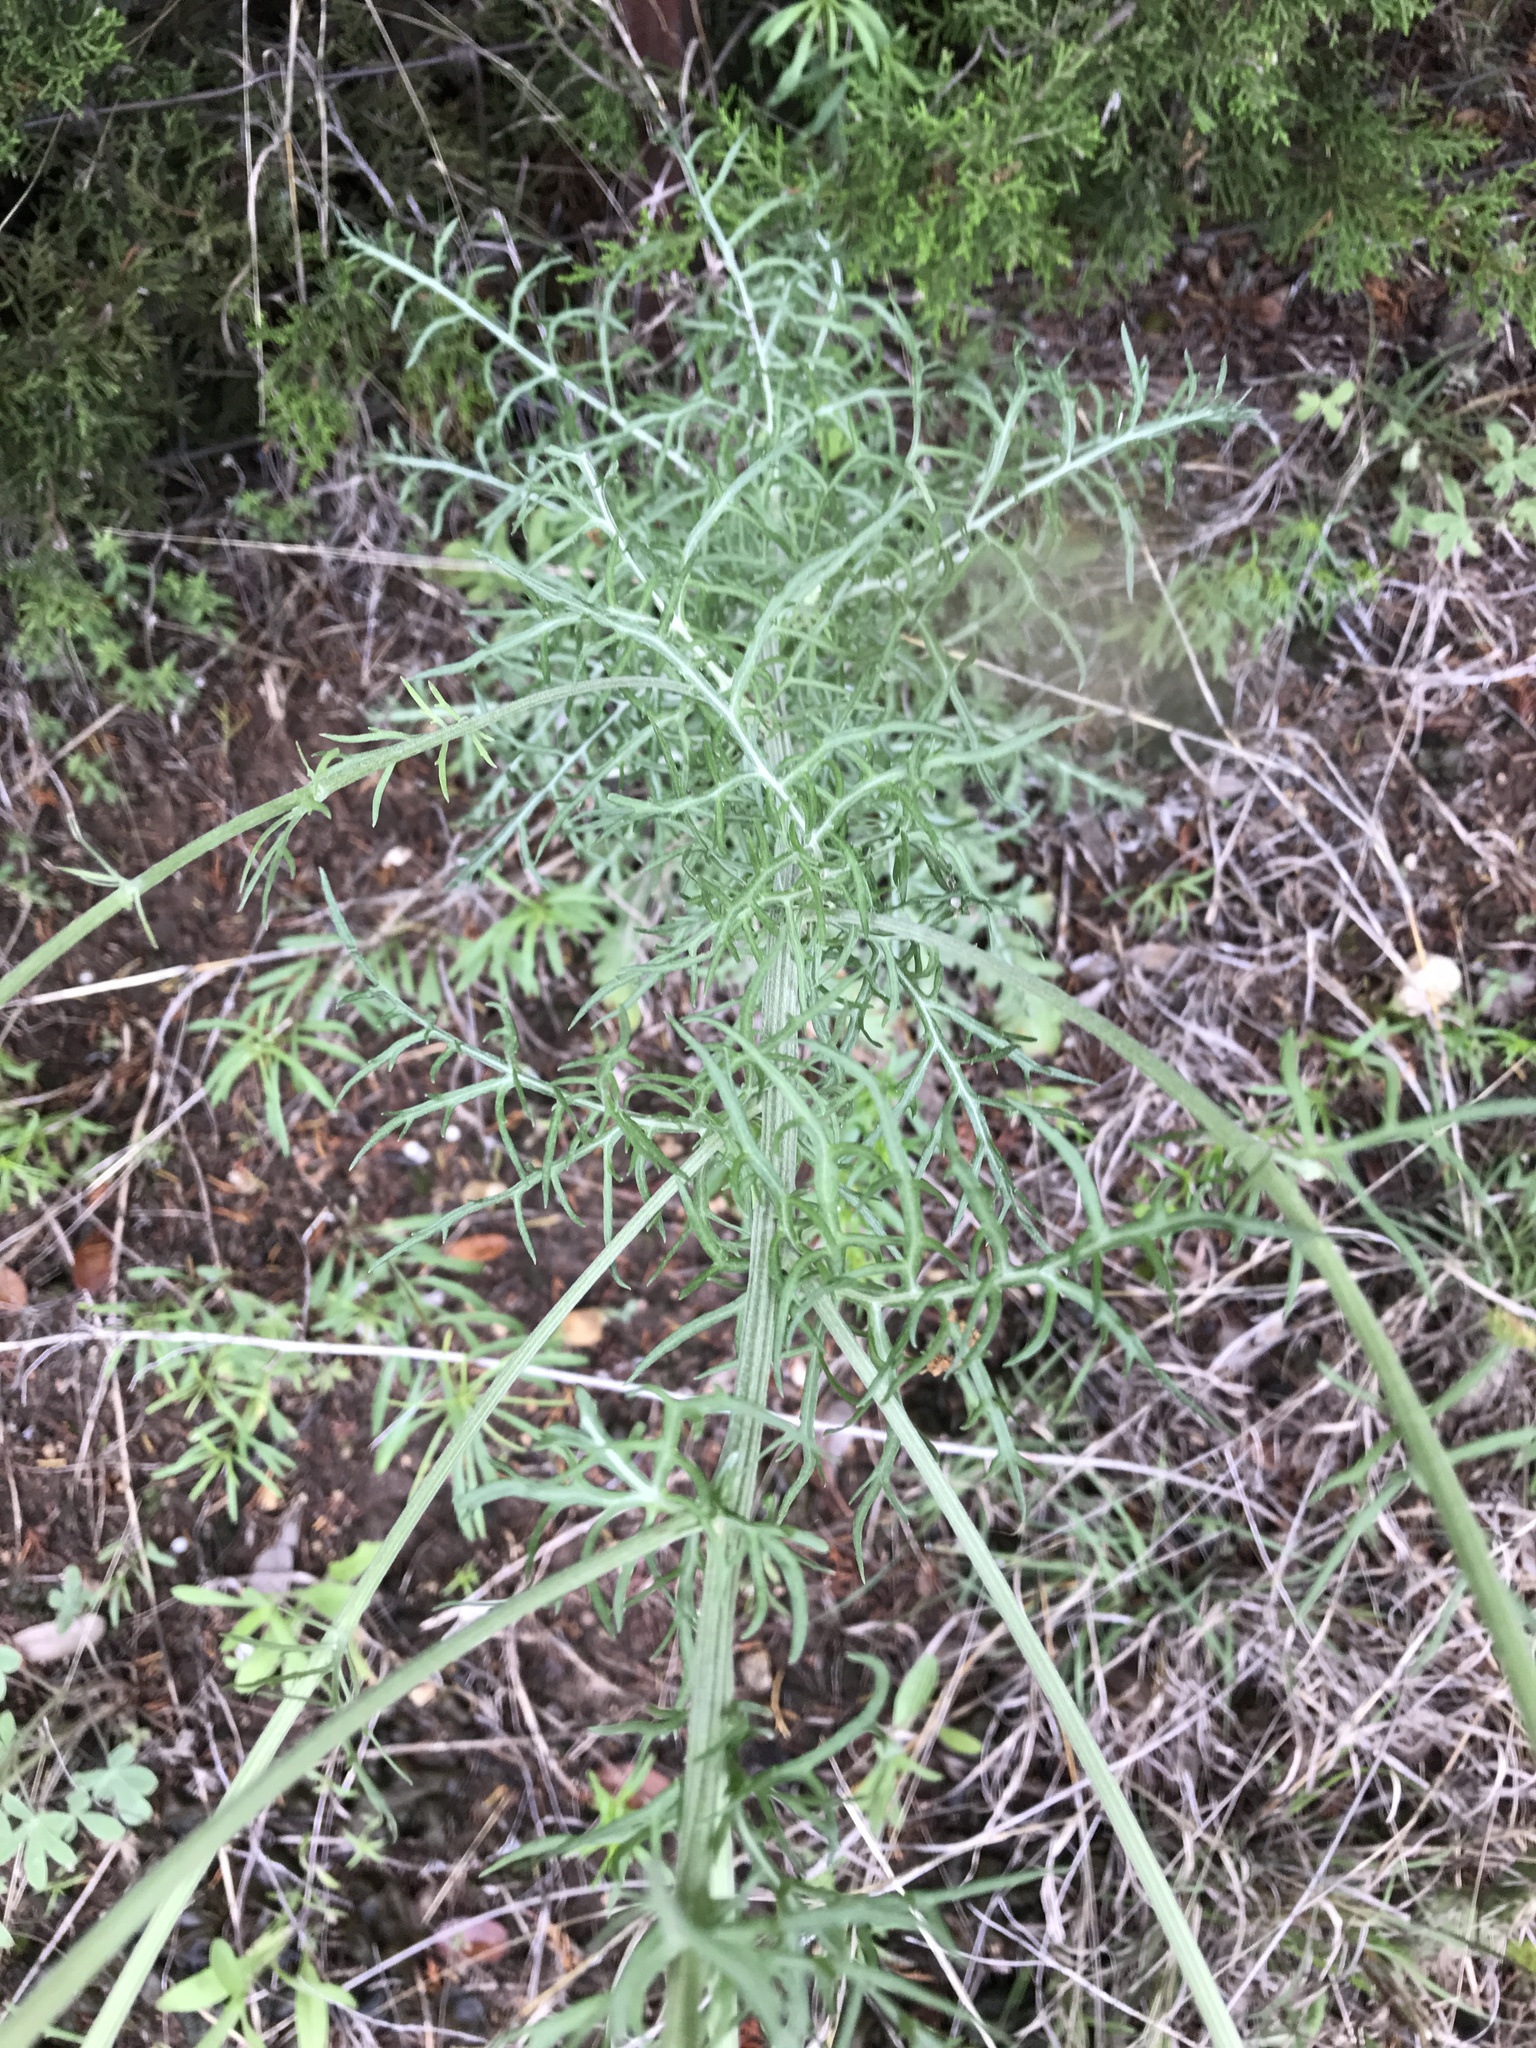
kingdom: Plantae
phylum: Tracheophyta
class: Magnoliopsida
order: Asterales
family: Asteraceae
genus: Hymenopappus
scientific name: Hymenopappus scabiosaeus
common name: Carolina woollywhite
